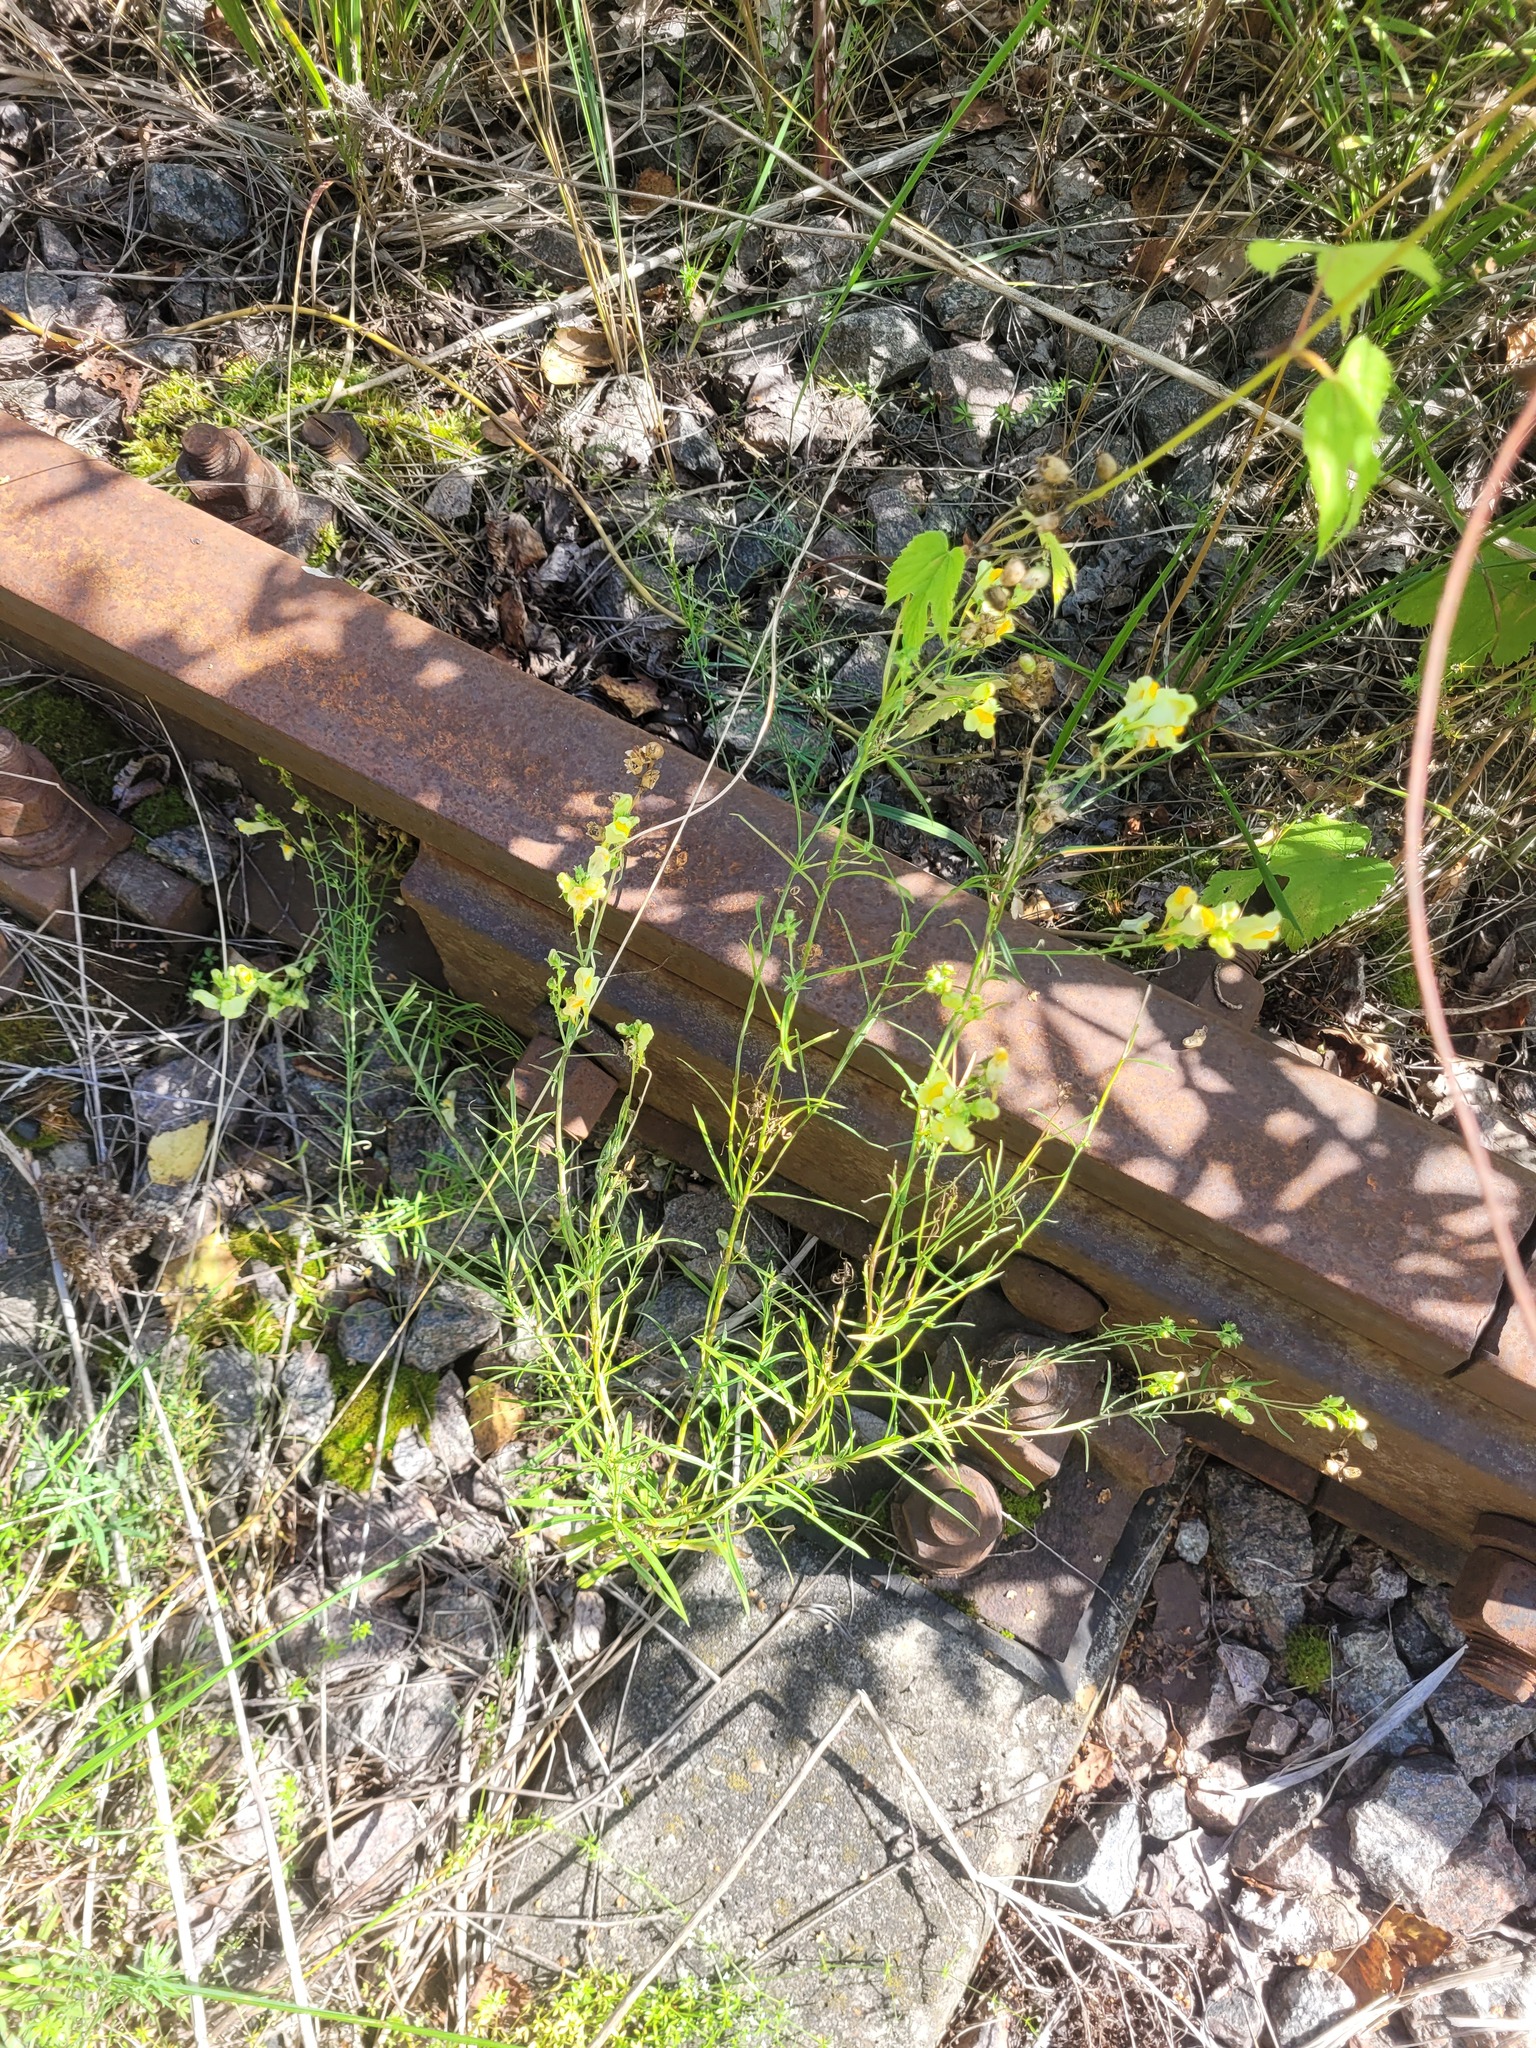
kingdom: Plantae
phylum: Tracheophyta
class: Magnoliopsida
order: Lamiales
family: Plantaginaceae
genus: Linaria
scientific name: Linaria vulgaris
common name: Butter and eggs
